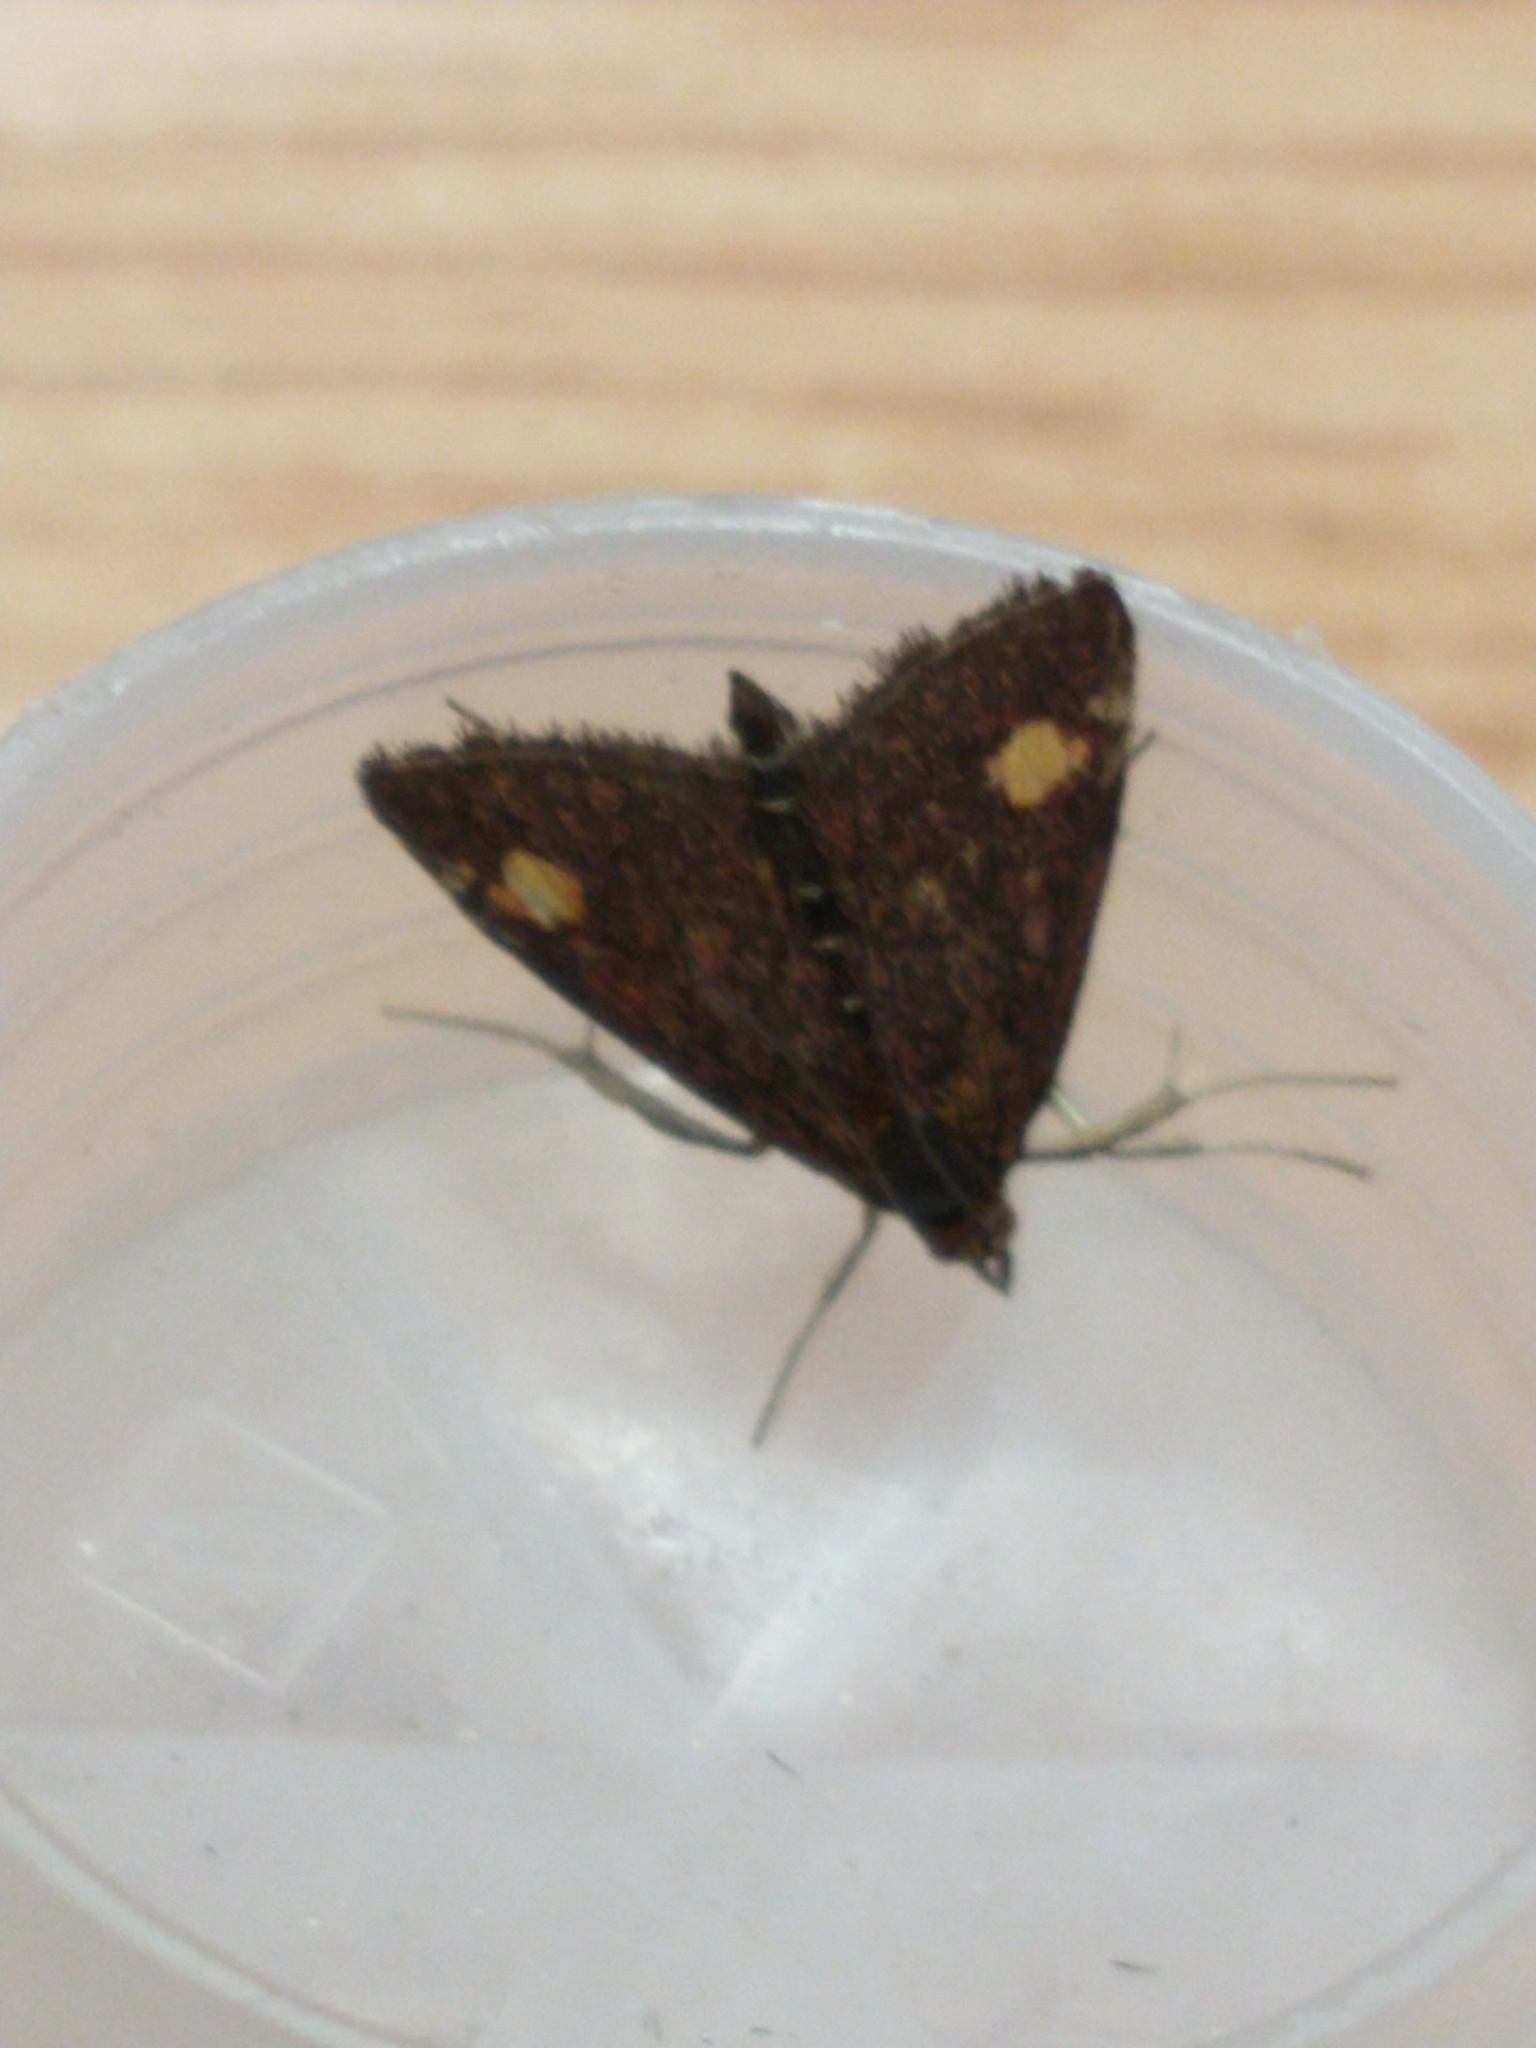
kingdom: Animalia
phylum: Arthropoda
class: Insecta
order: Lepidoptera
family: Crambidae
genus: Pyrausta
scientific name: Pyrausta aurata
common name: Small purple & gold
